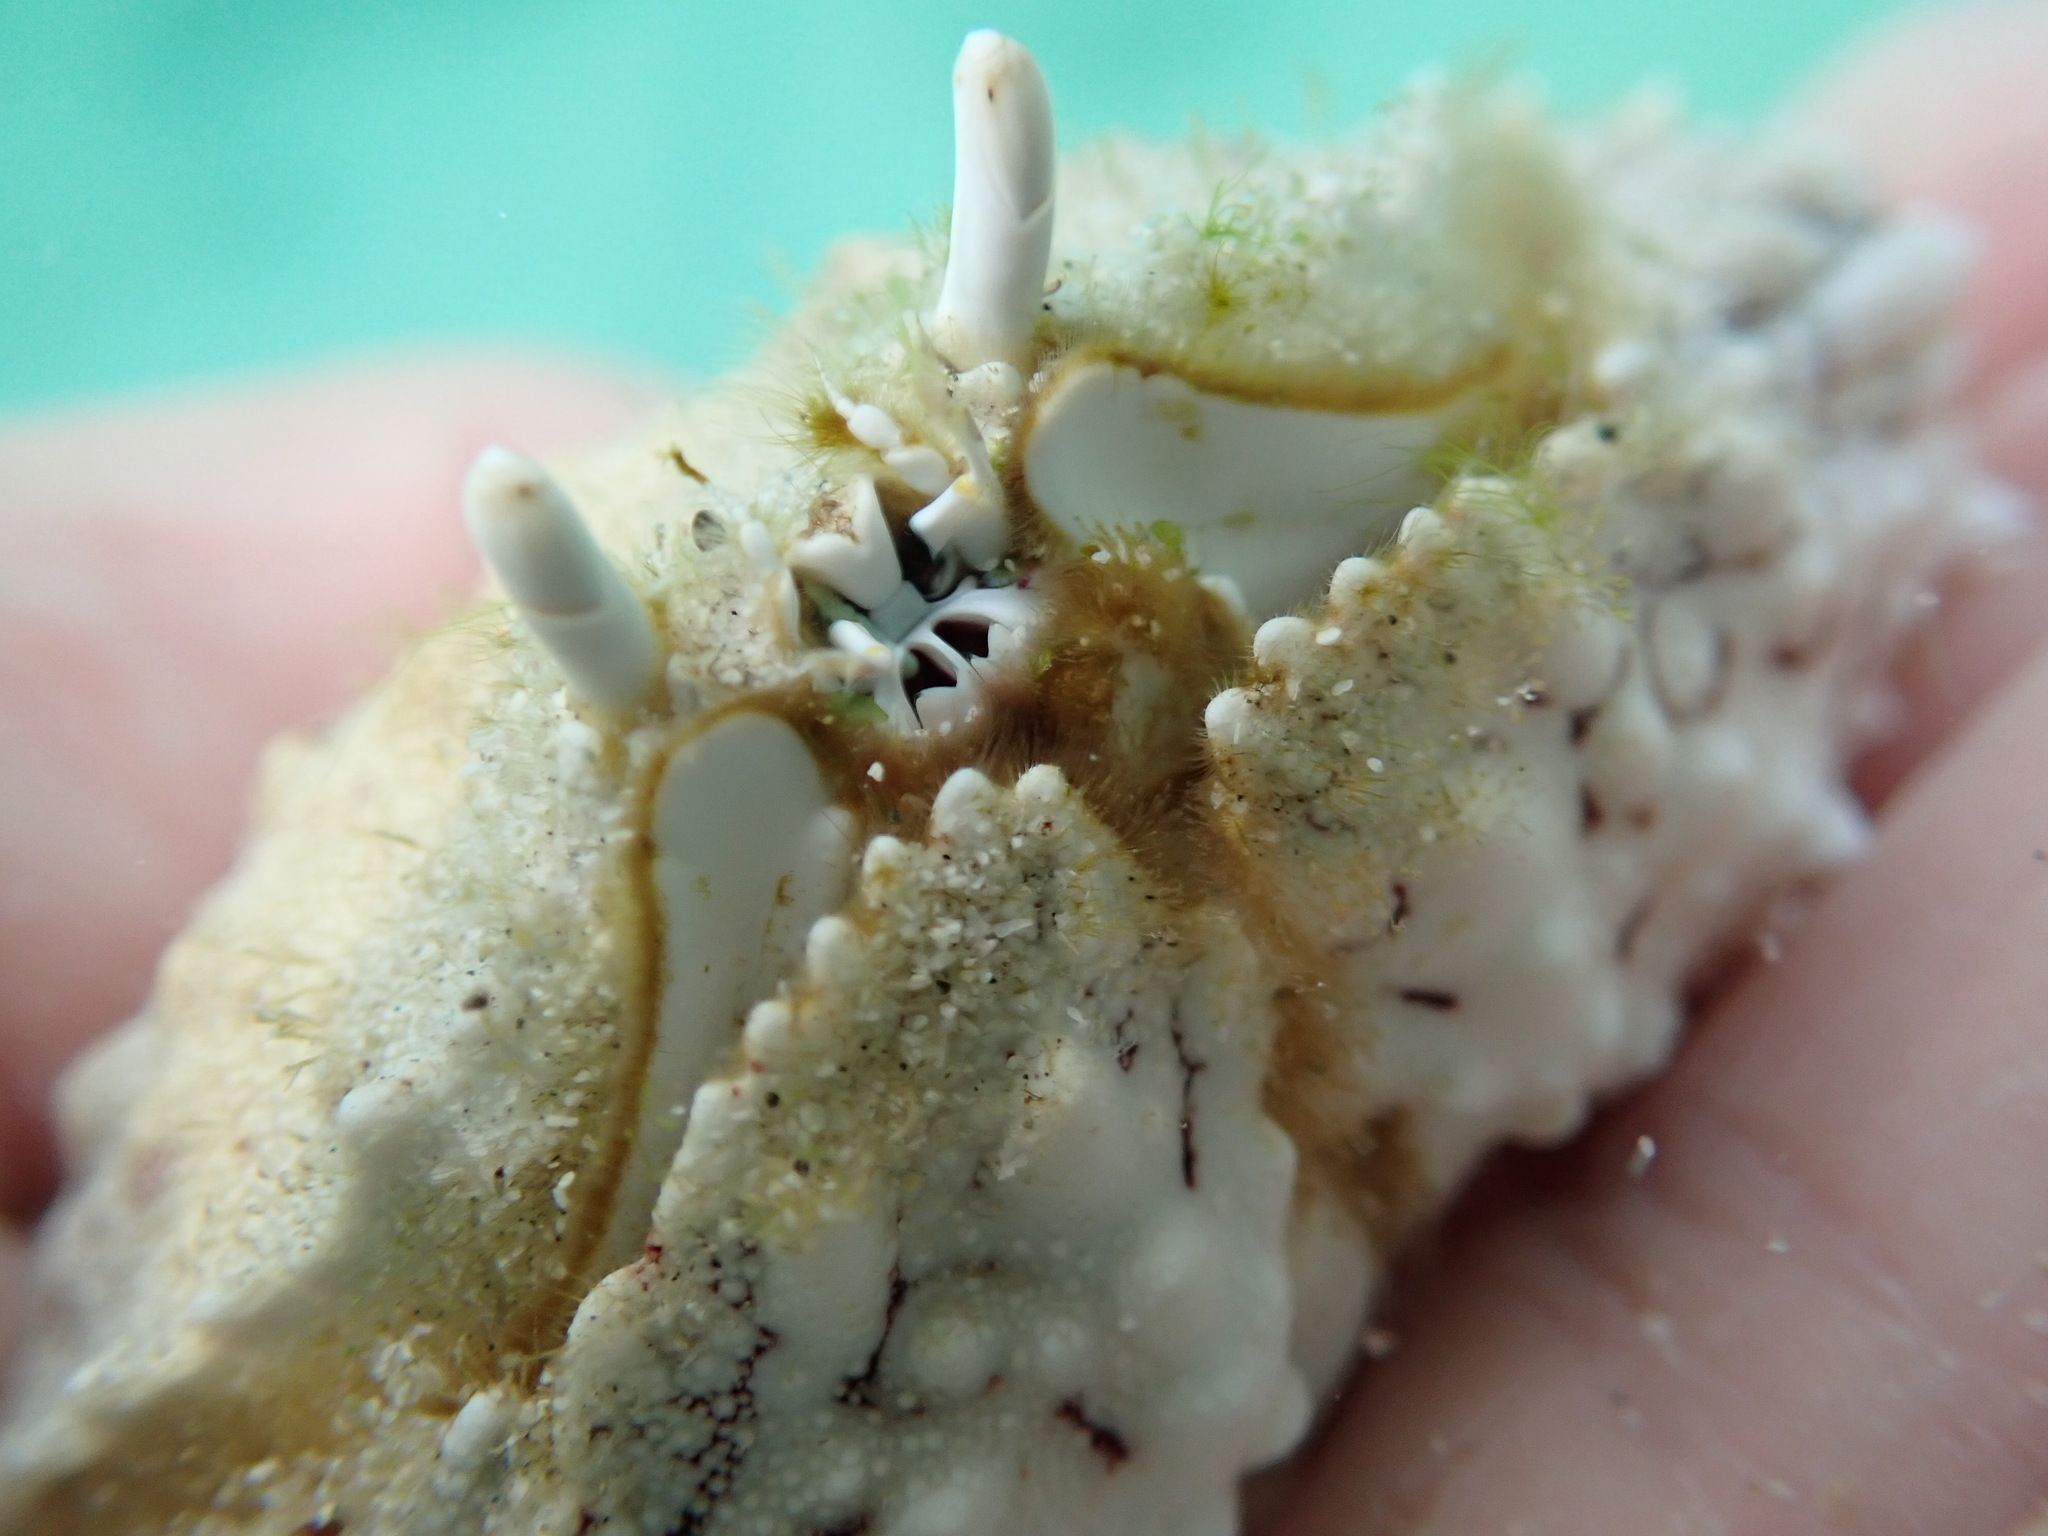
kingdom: Animalia
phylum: Arthropoda
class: Malacostraca
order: Decapoda
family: Calappidae
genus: Calappa
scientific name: Calappa hepatica
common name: Smooth box crab
